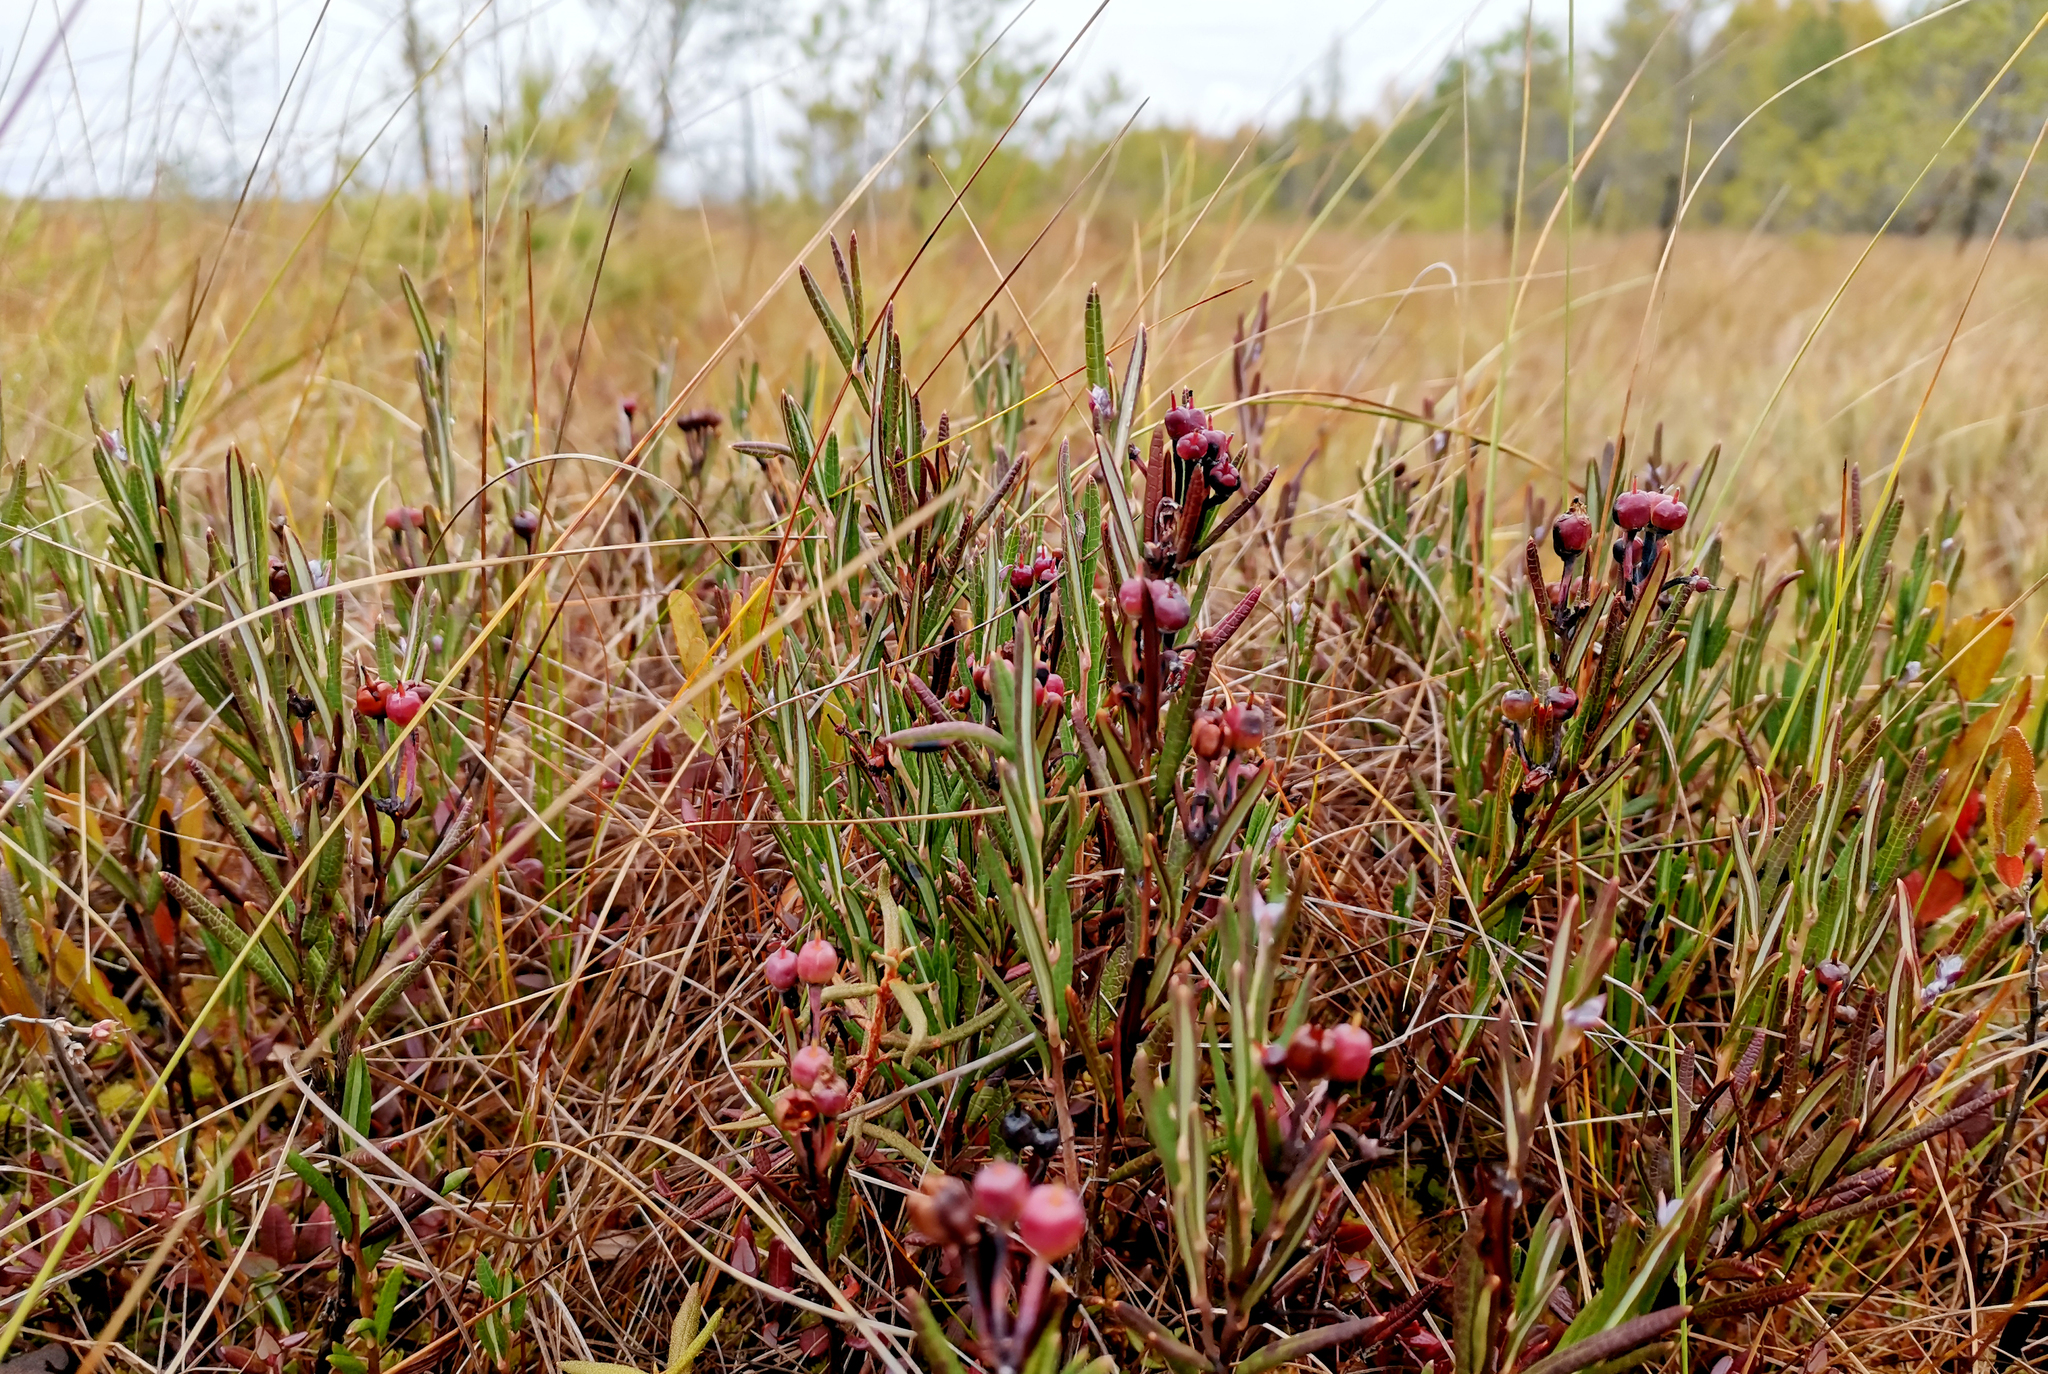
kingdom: Plantae
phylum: Tracheophyta
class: Magnoliopsida
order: Ericales
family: Ericaceae
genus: Andromeda
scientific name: Andromeda polifolia
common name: Bog-rosemary
